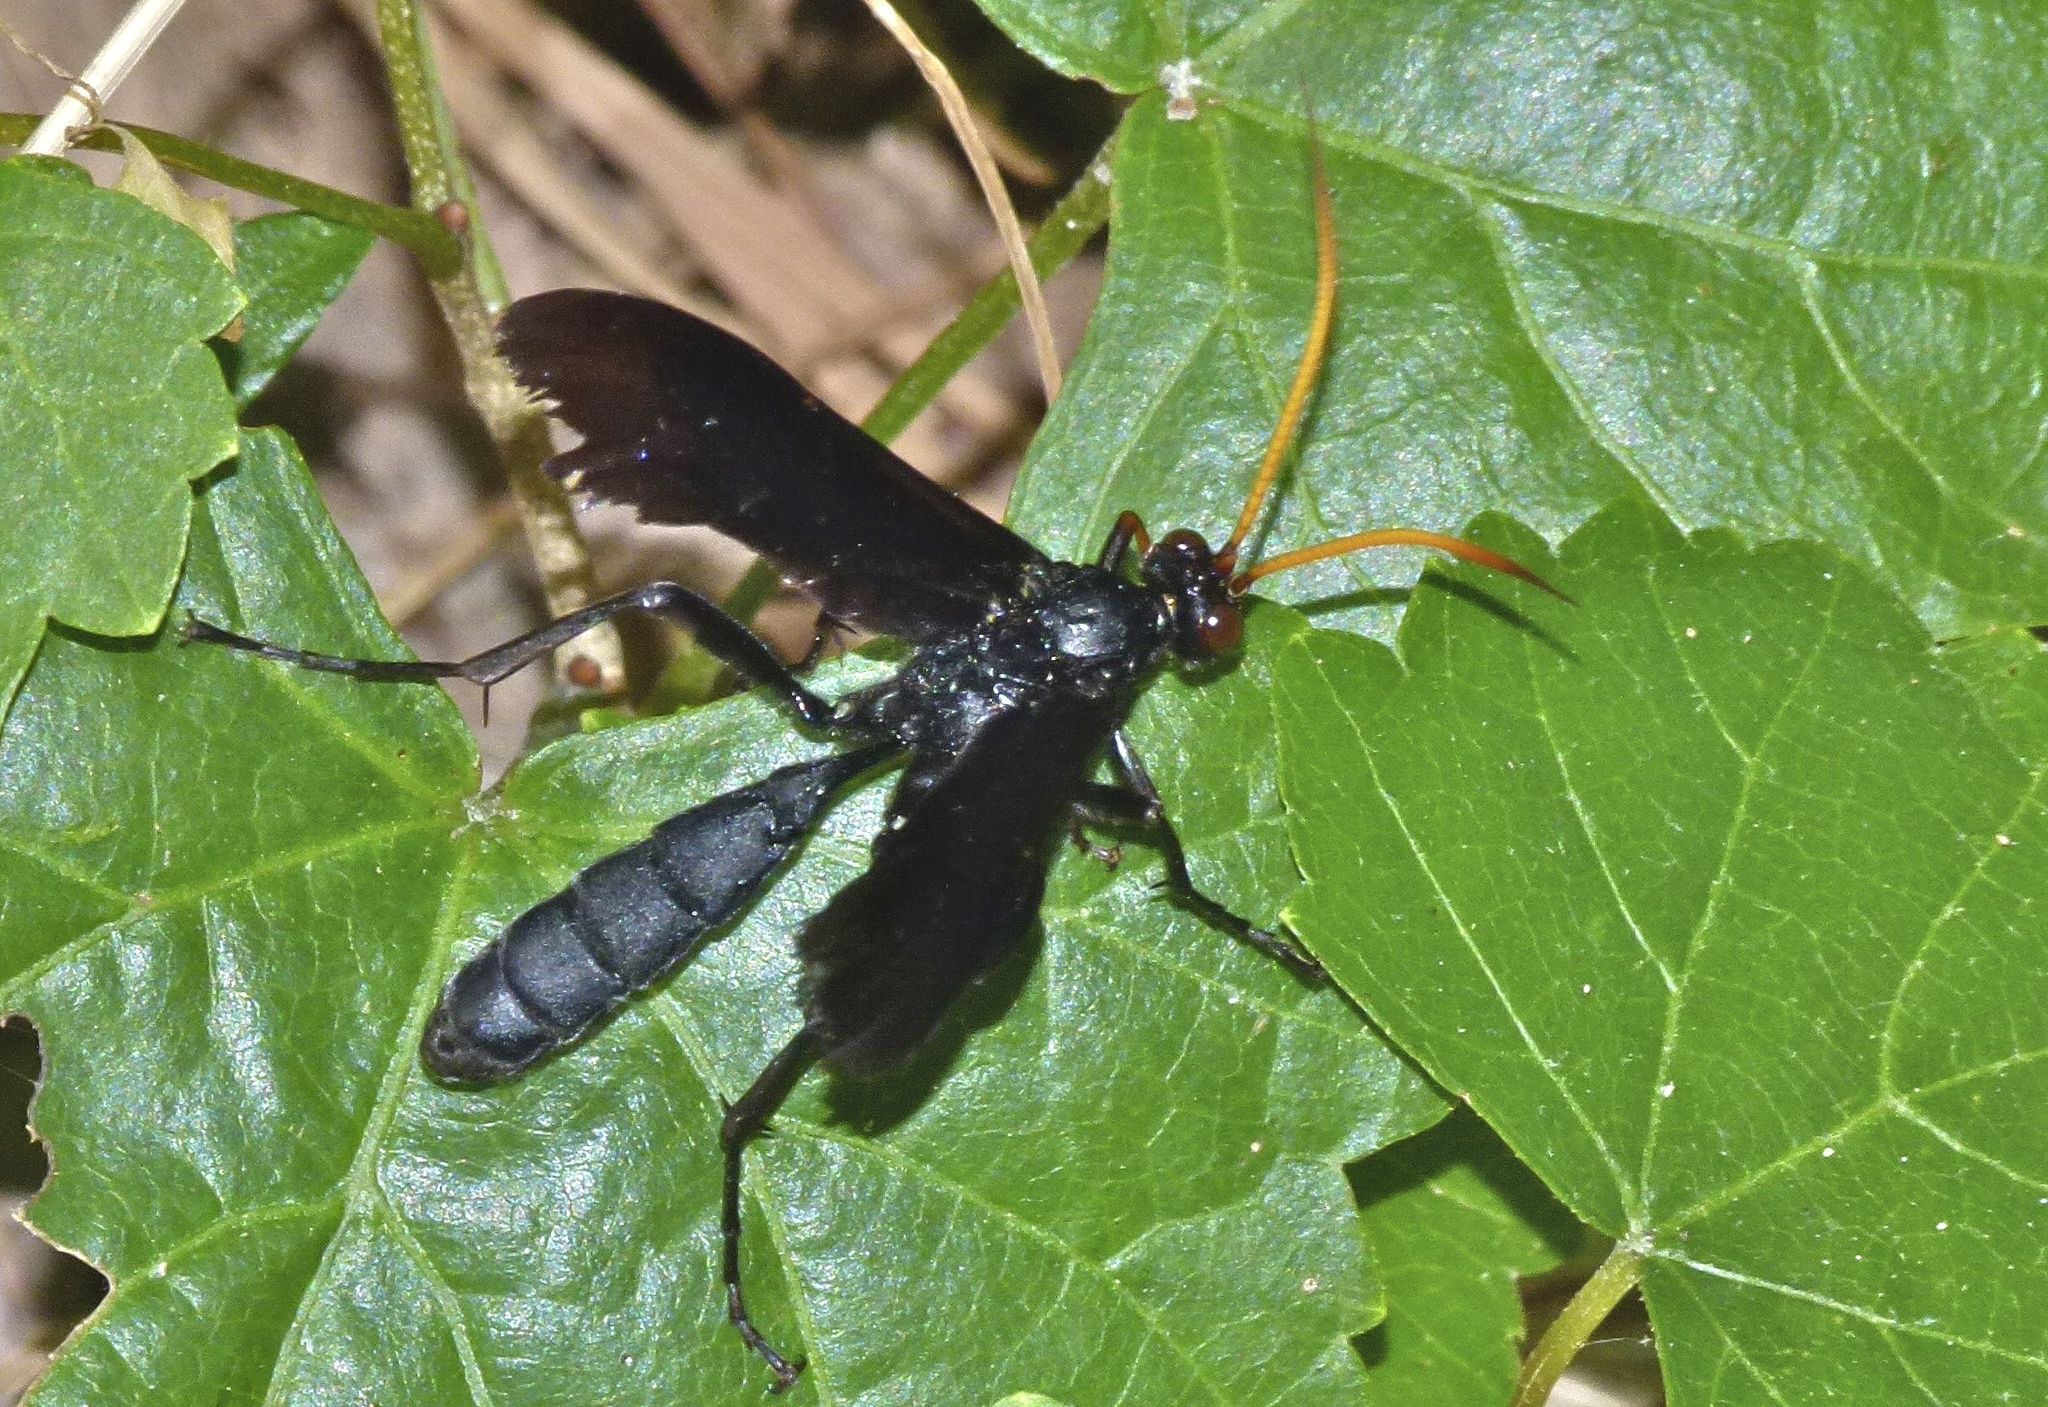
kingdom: Animalia
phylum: Arthropoda
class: Insecta
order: Hymenoptera
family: Ichneumonidae
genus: Gnamptopelta
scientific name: Gnamptopelta obsidianator
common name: Bent-shielded besieger wasp
